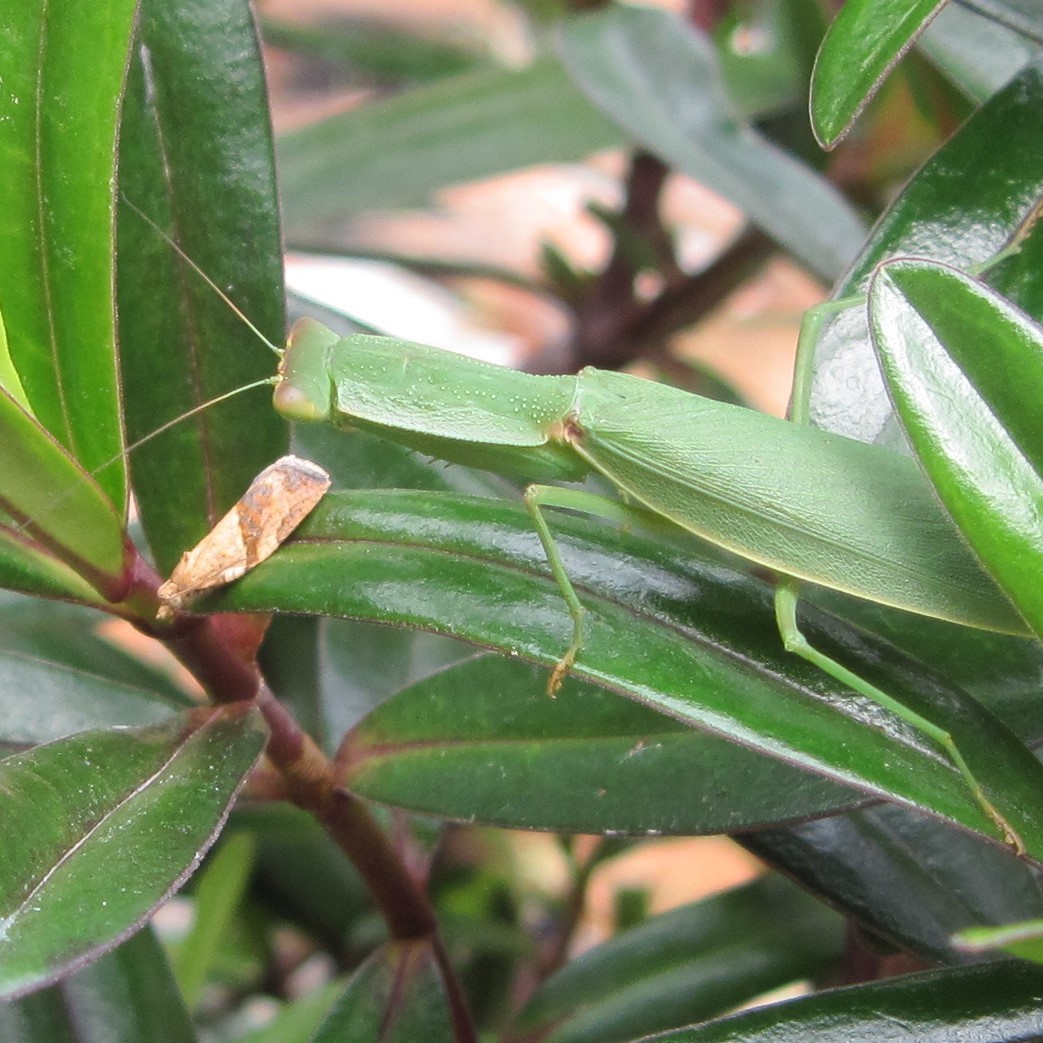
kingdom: Animalia
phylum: Arthropoda
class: Insecta
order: Mantodea
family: Mantidae
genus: Orthodera
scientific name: Orthodera novaezealandiae
